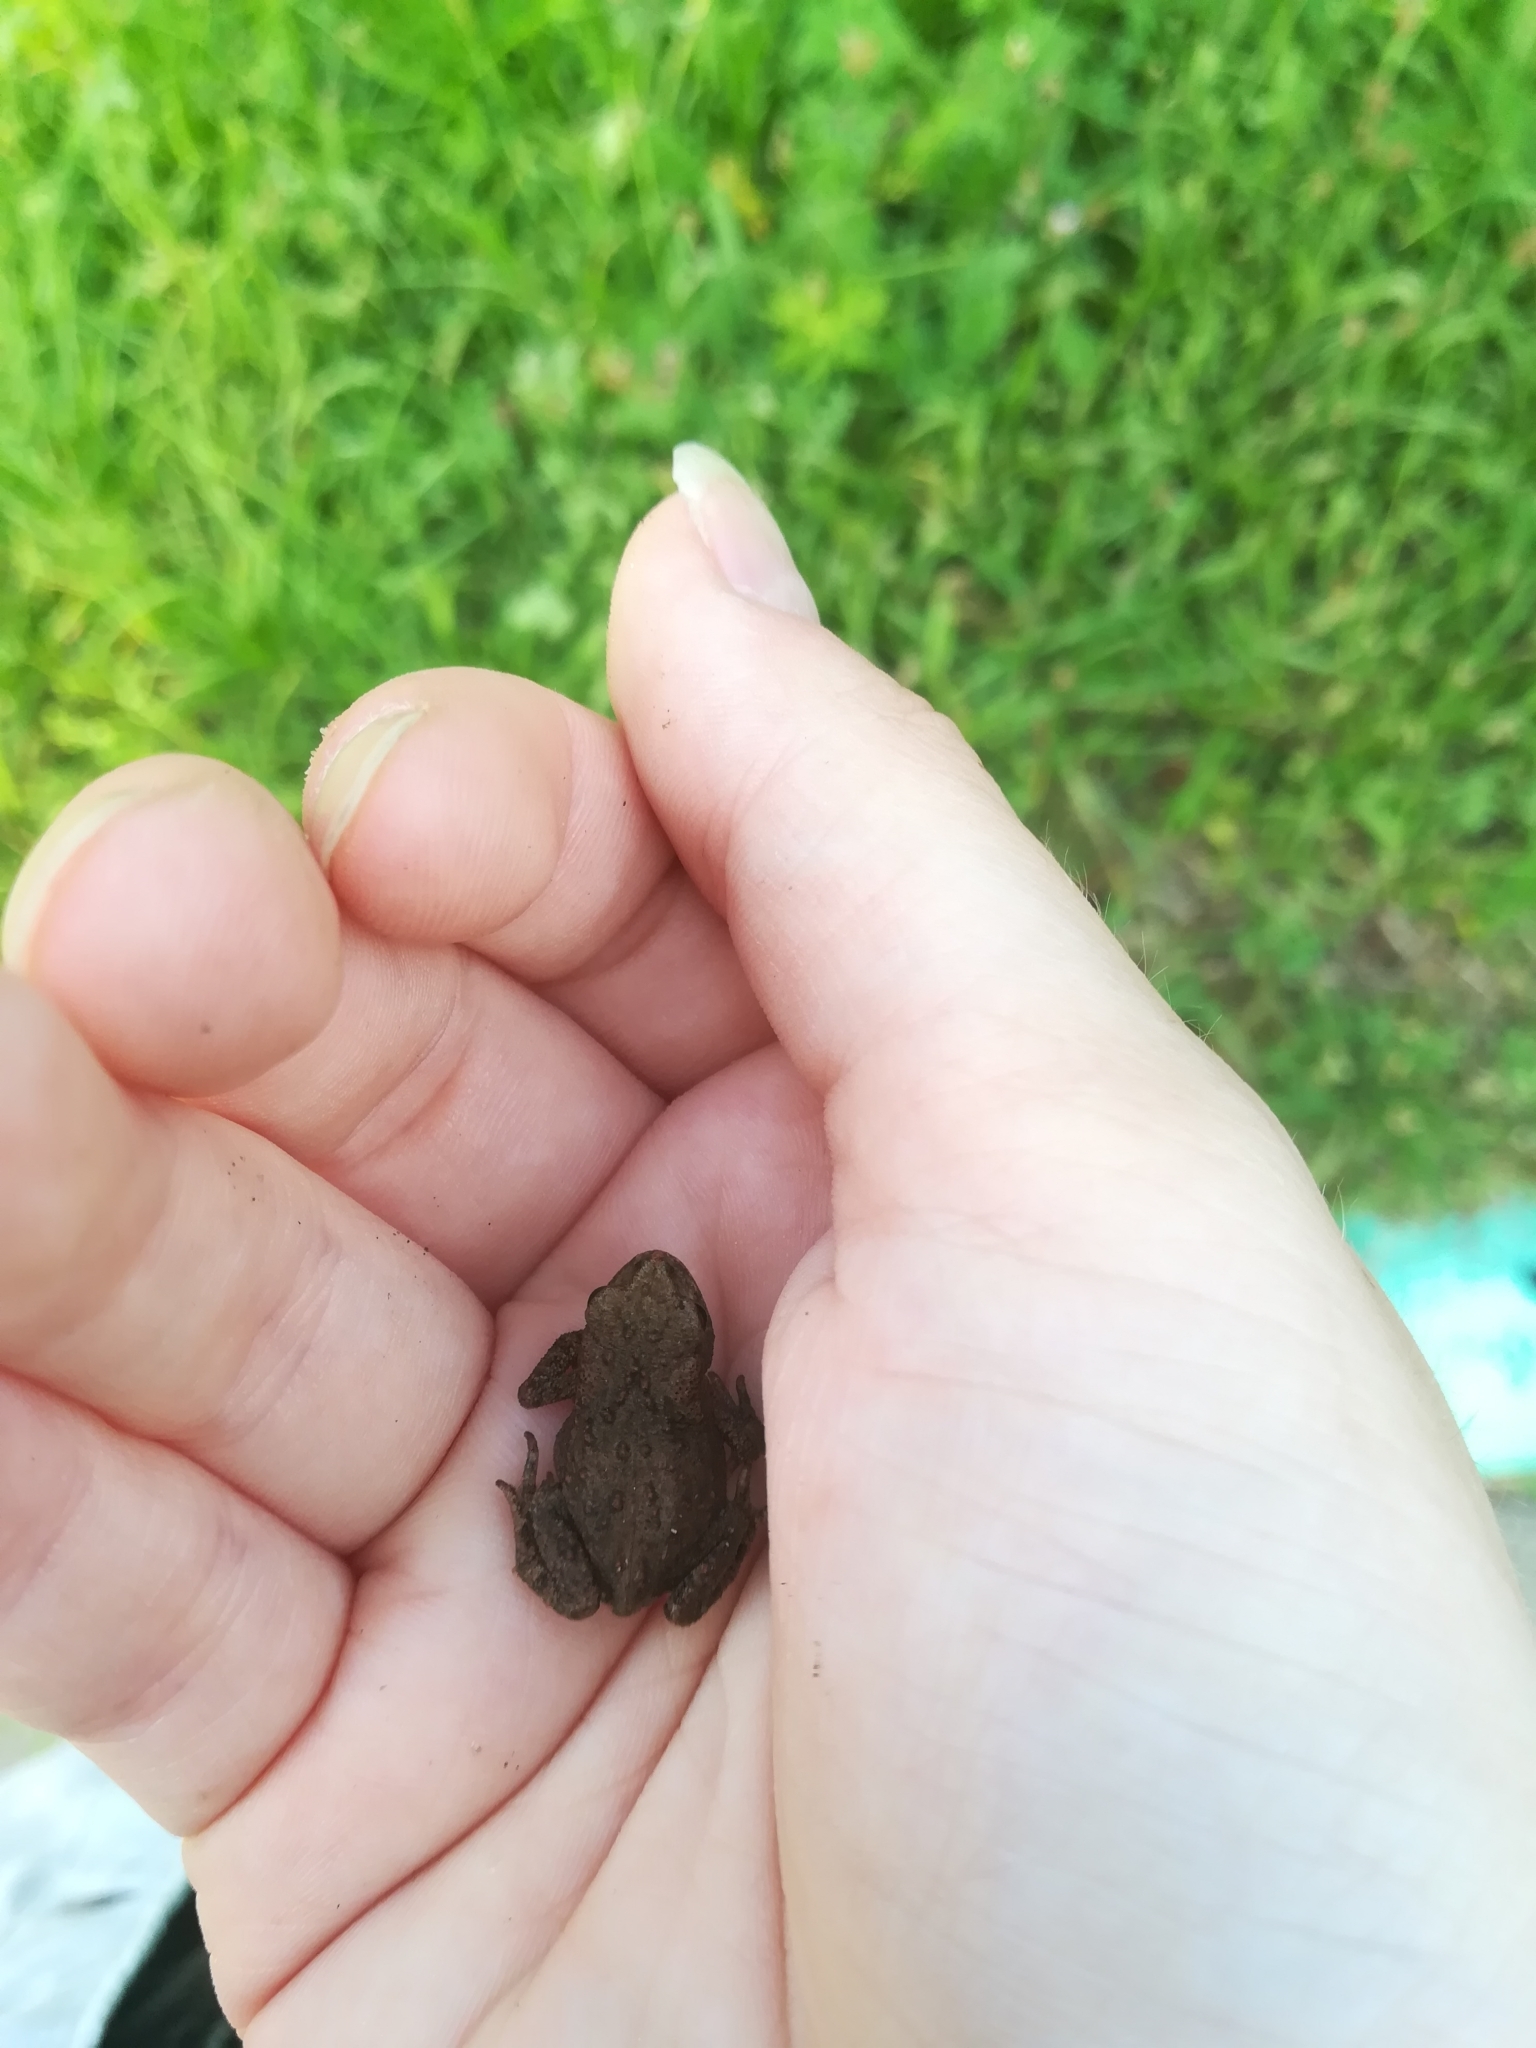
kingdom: Animalia
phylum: Chordata
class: Amphibia
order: Anura
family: Bufonidae
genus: Bufo
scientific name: Bufo bufo
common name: Common toad
